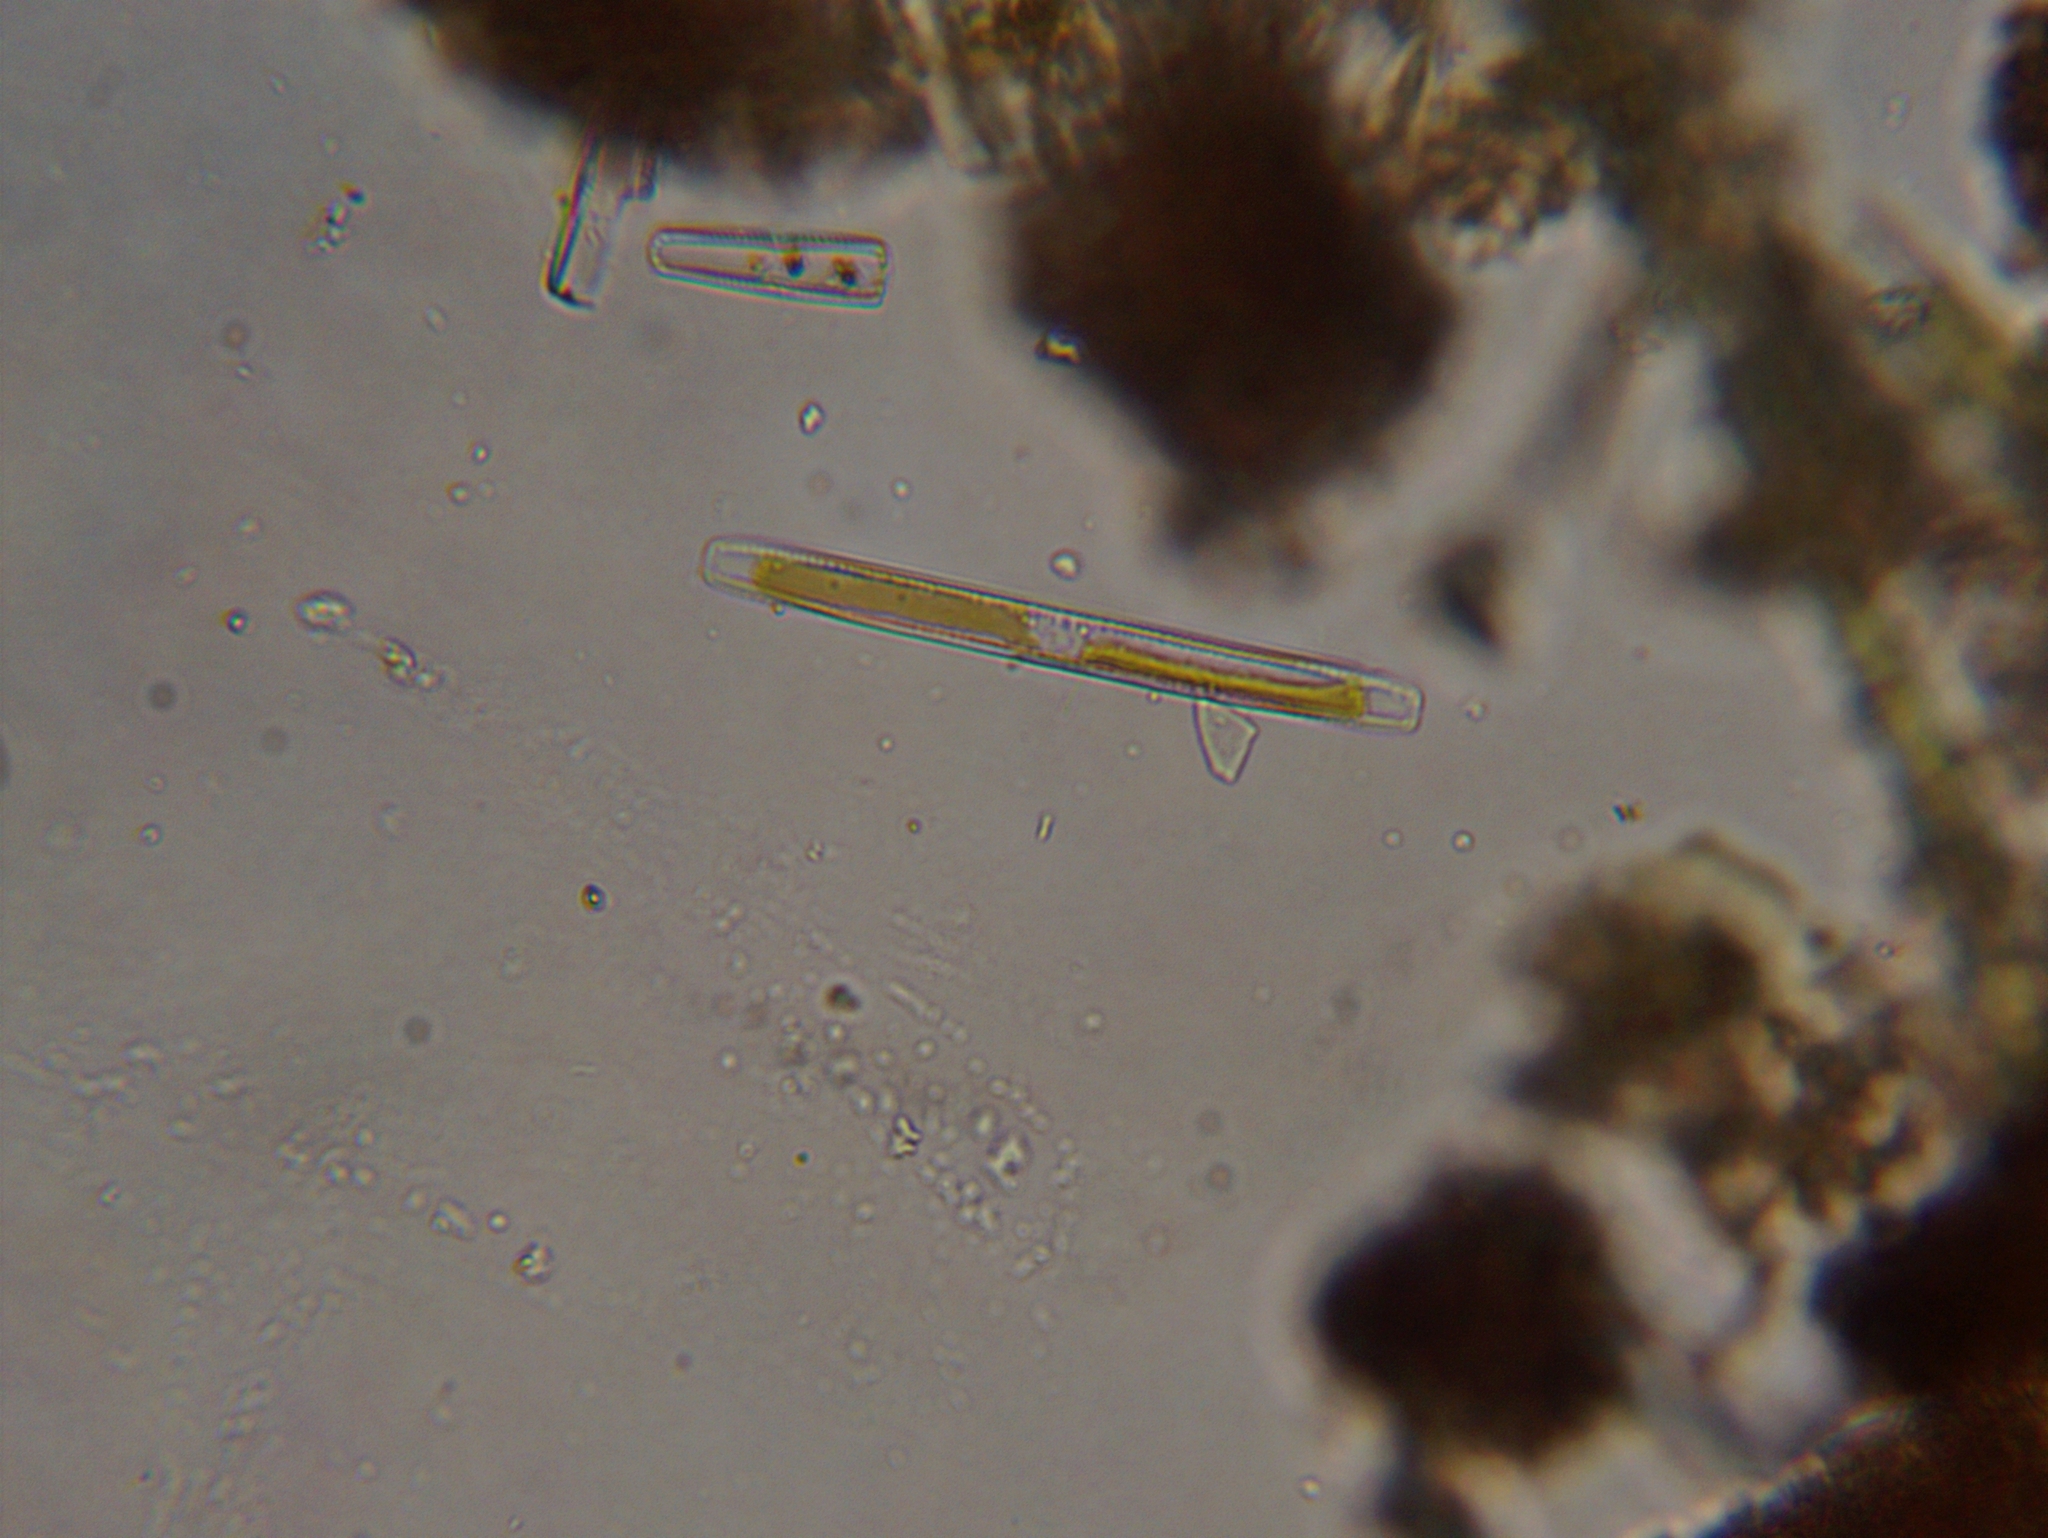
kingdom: Chromista
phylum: Ochrophyta
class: Bacillariophyceae
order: Bacillariales
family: Bacillariaceae
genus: Nitzschia
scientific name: Nitzschia
